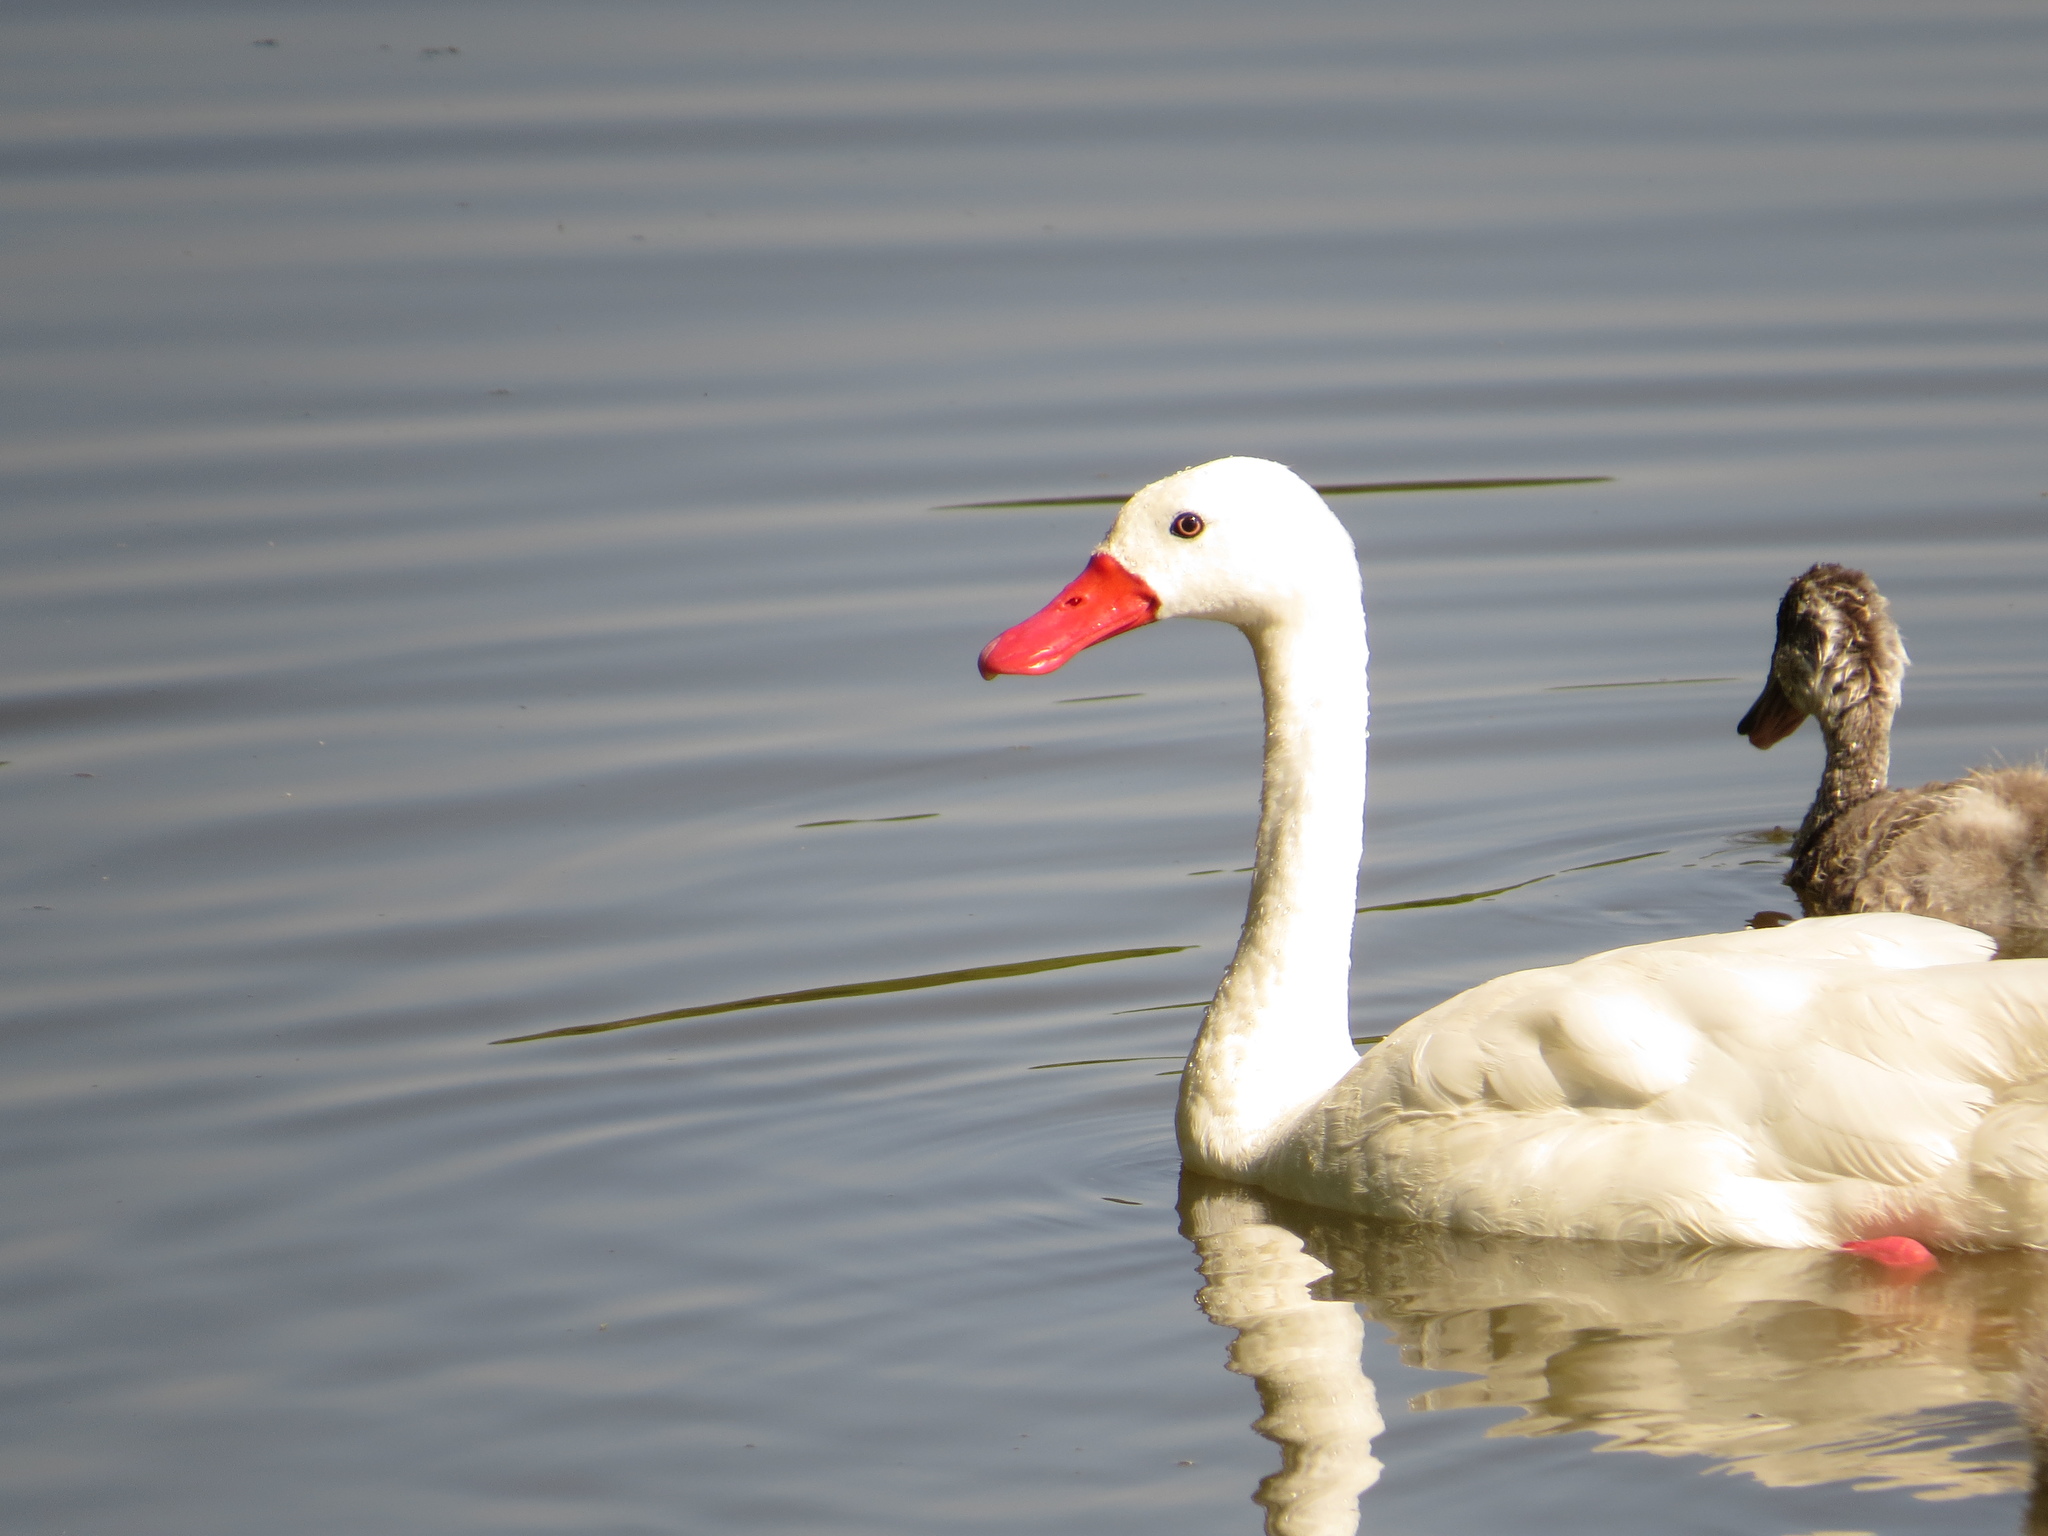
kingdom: Animalia
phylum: Chordata
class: Aves
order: Anseriformes
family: Anatidae
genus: Coscoroba
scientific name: Coscoroba coscoroba
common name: Coscoroba swan
